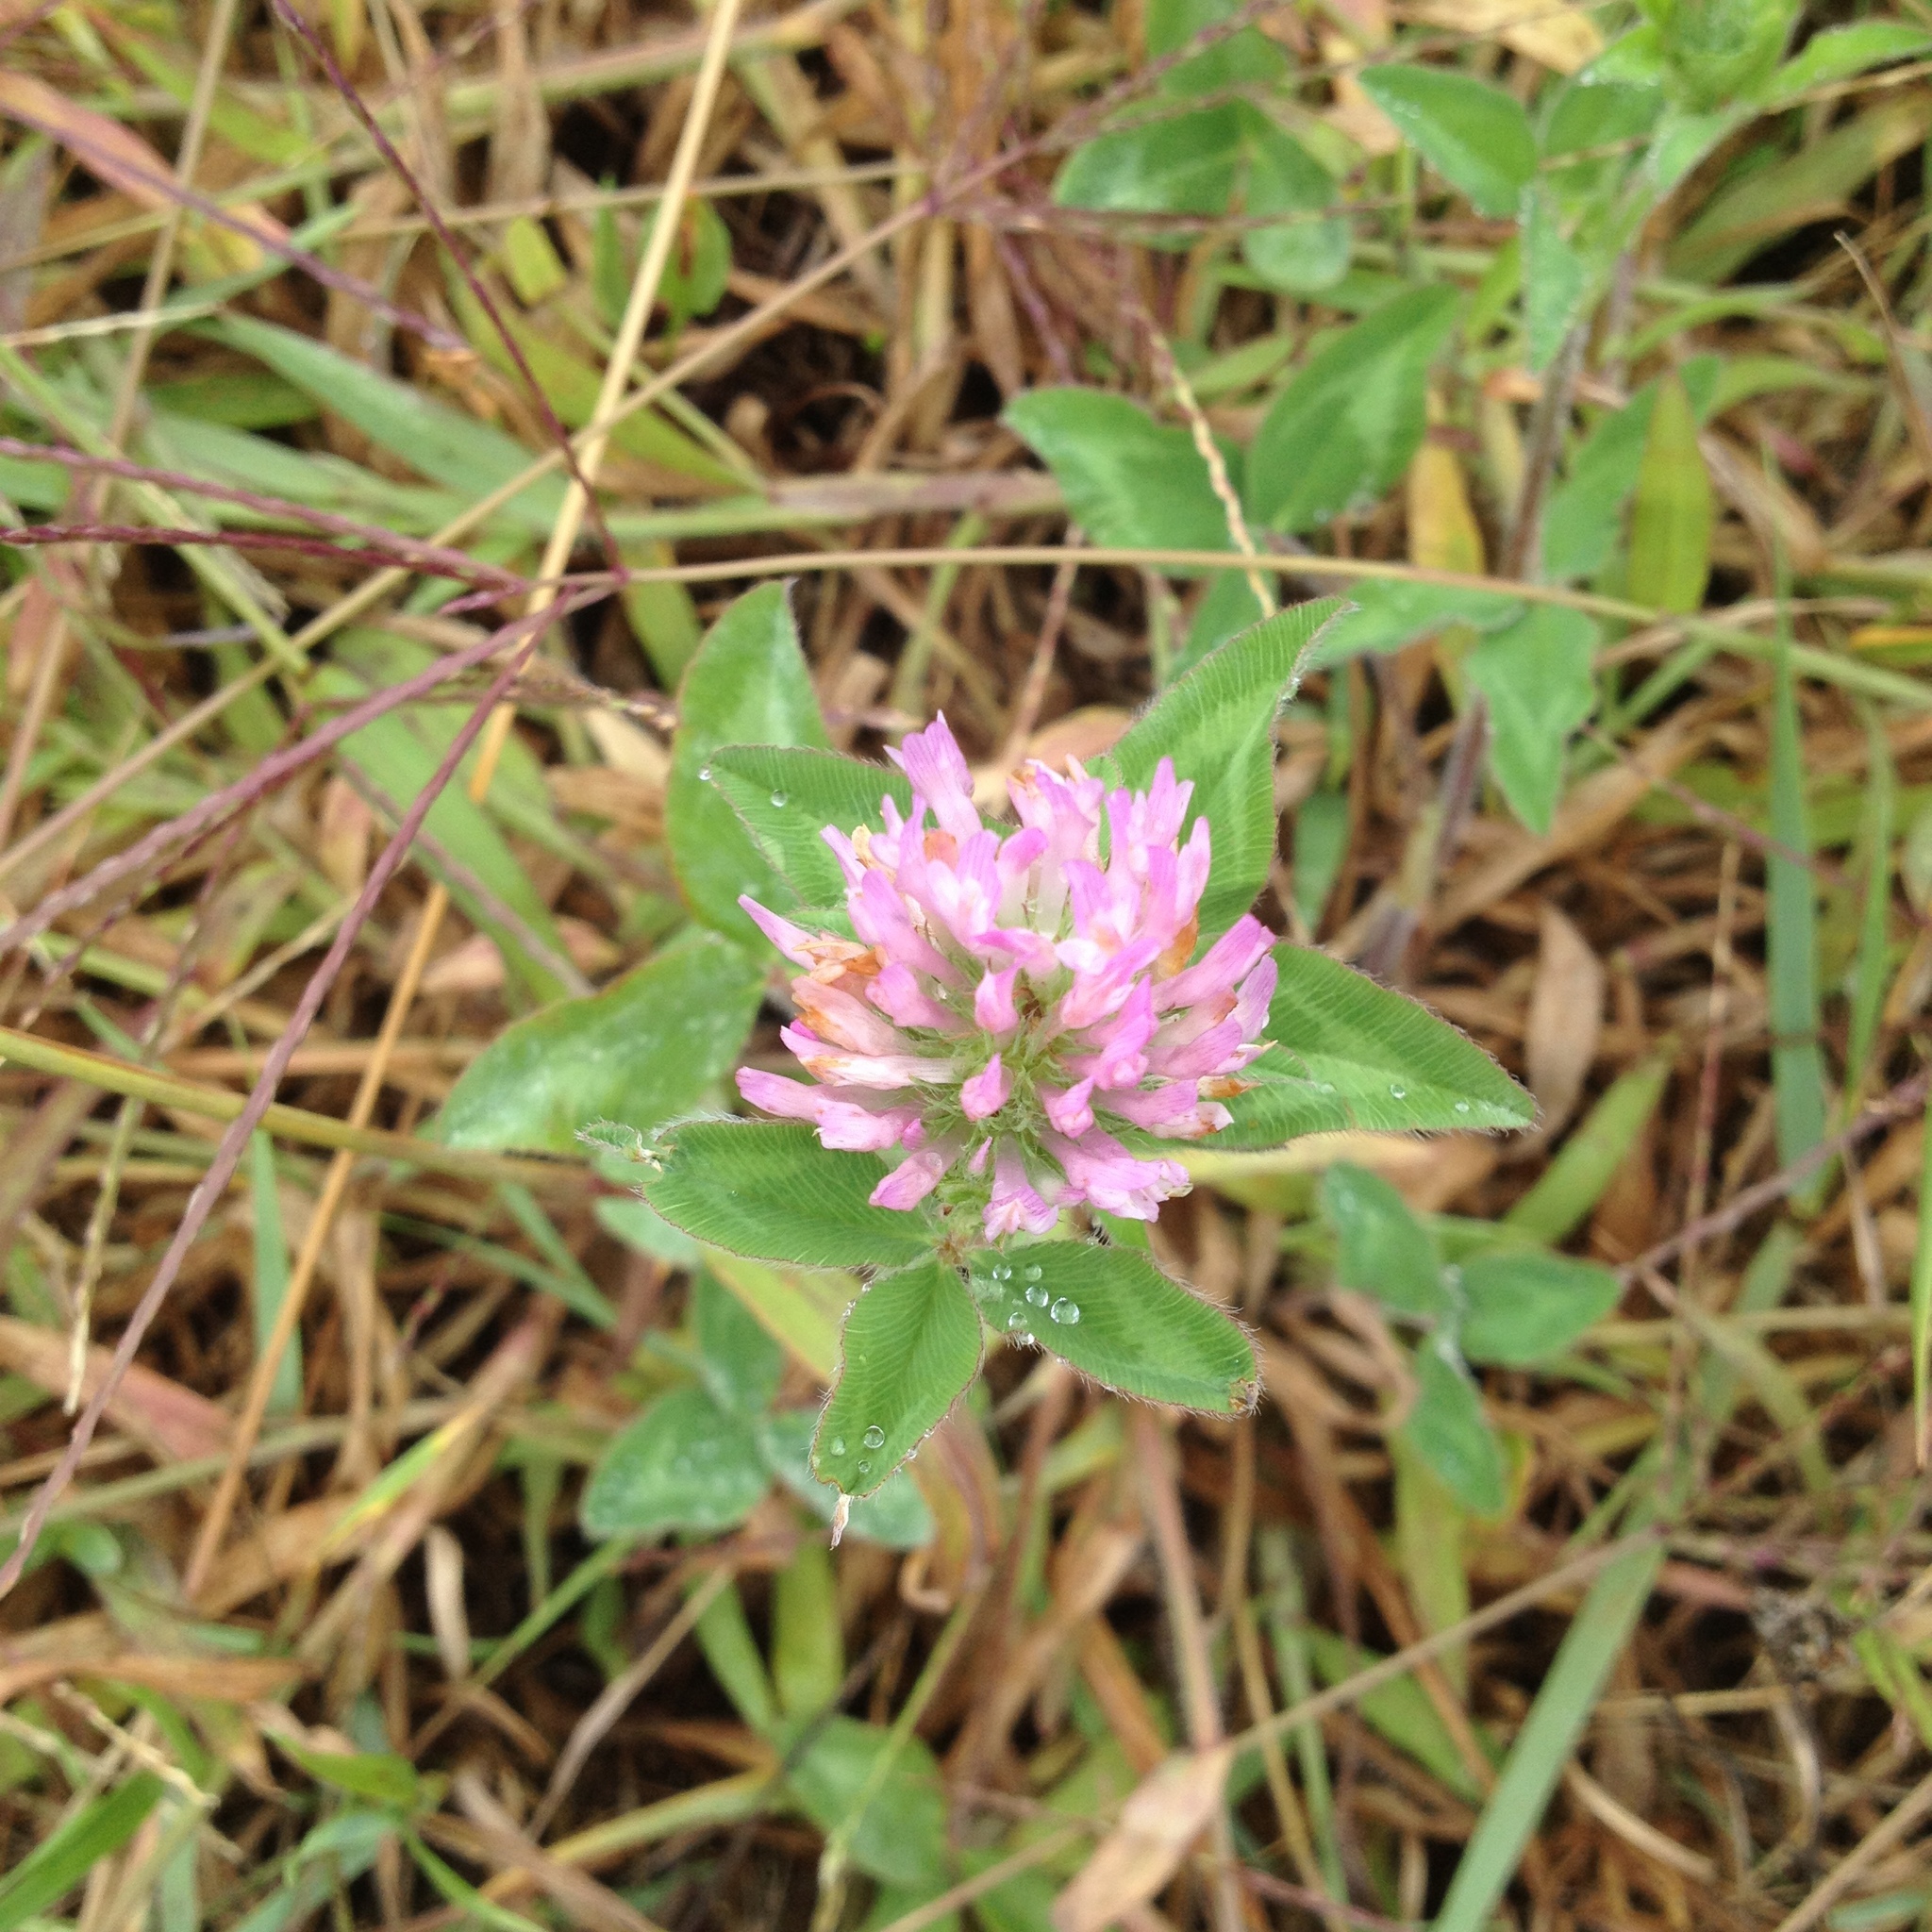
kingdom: Plantae
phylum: Tracheophyta
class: Magnoliopsida
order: Fabales
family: Fabaceae
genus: Trifolium
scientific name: Trifolium pratense
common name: Red clover
